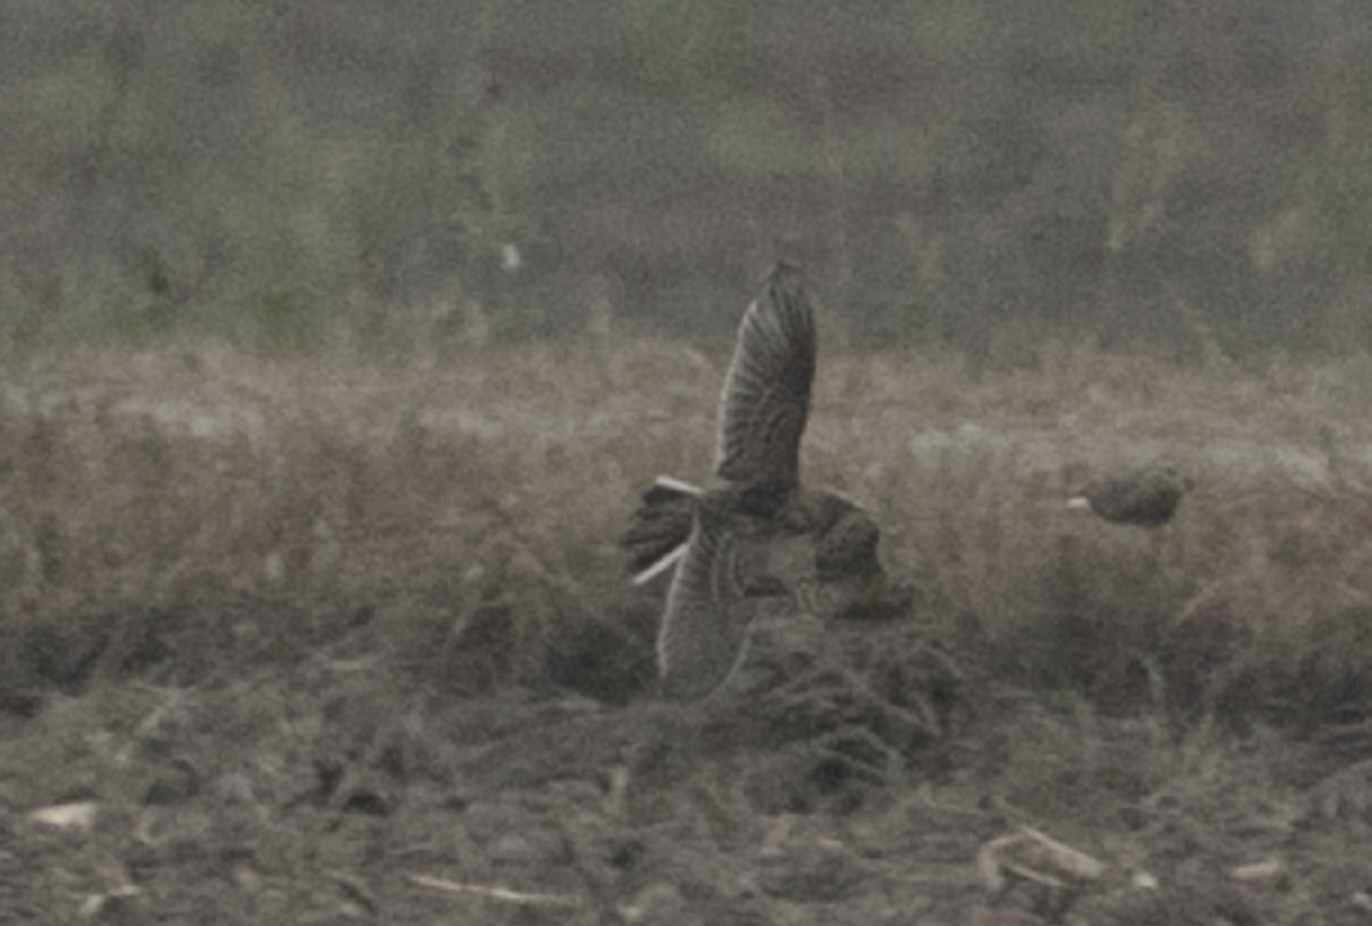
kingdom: Animalia
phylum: Chordata
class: Aves
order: Passeriformes
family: Alaudidae
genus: Alauda
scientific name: Alauda arvensis
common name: Eurasian skylark
